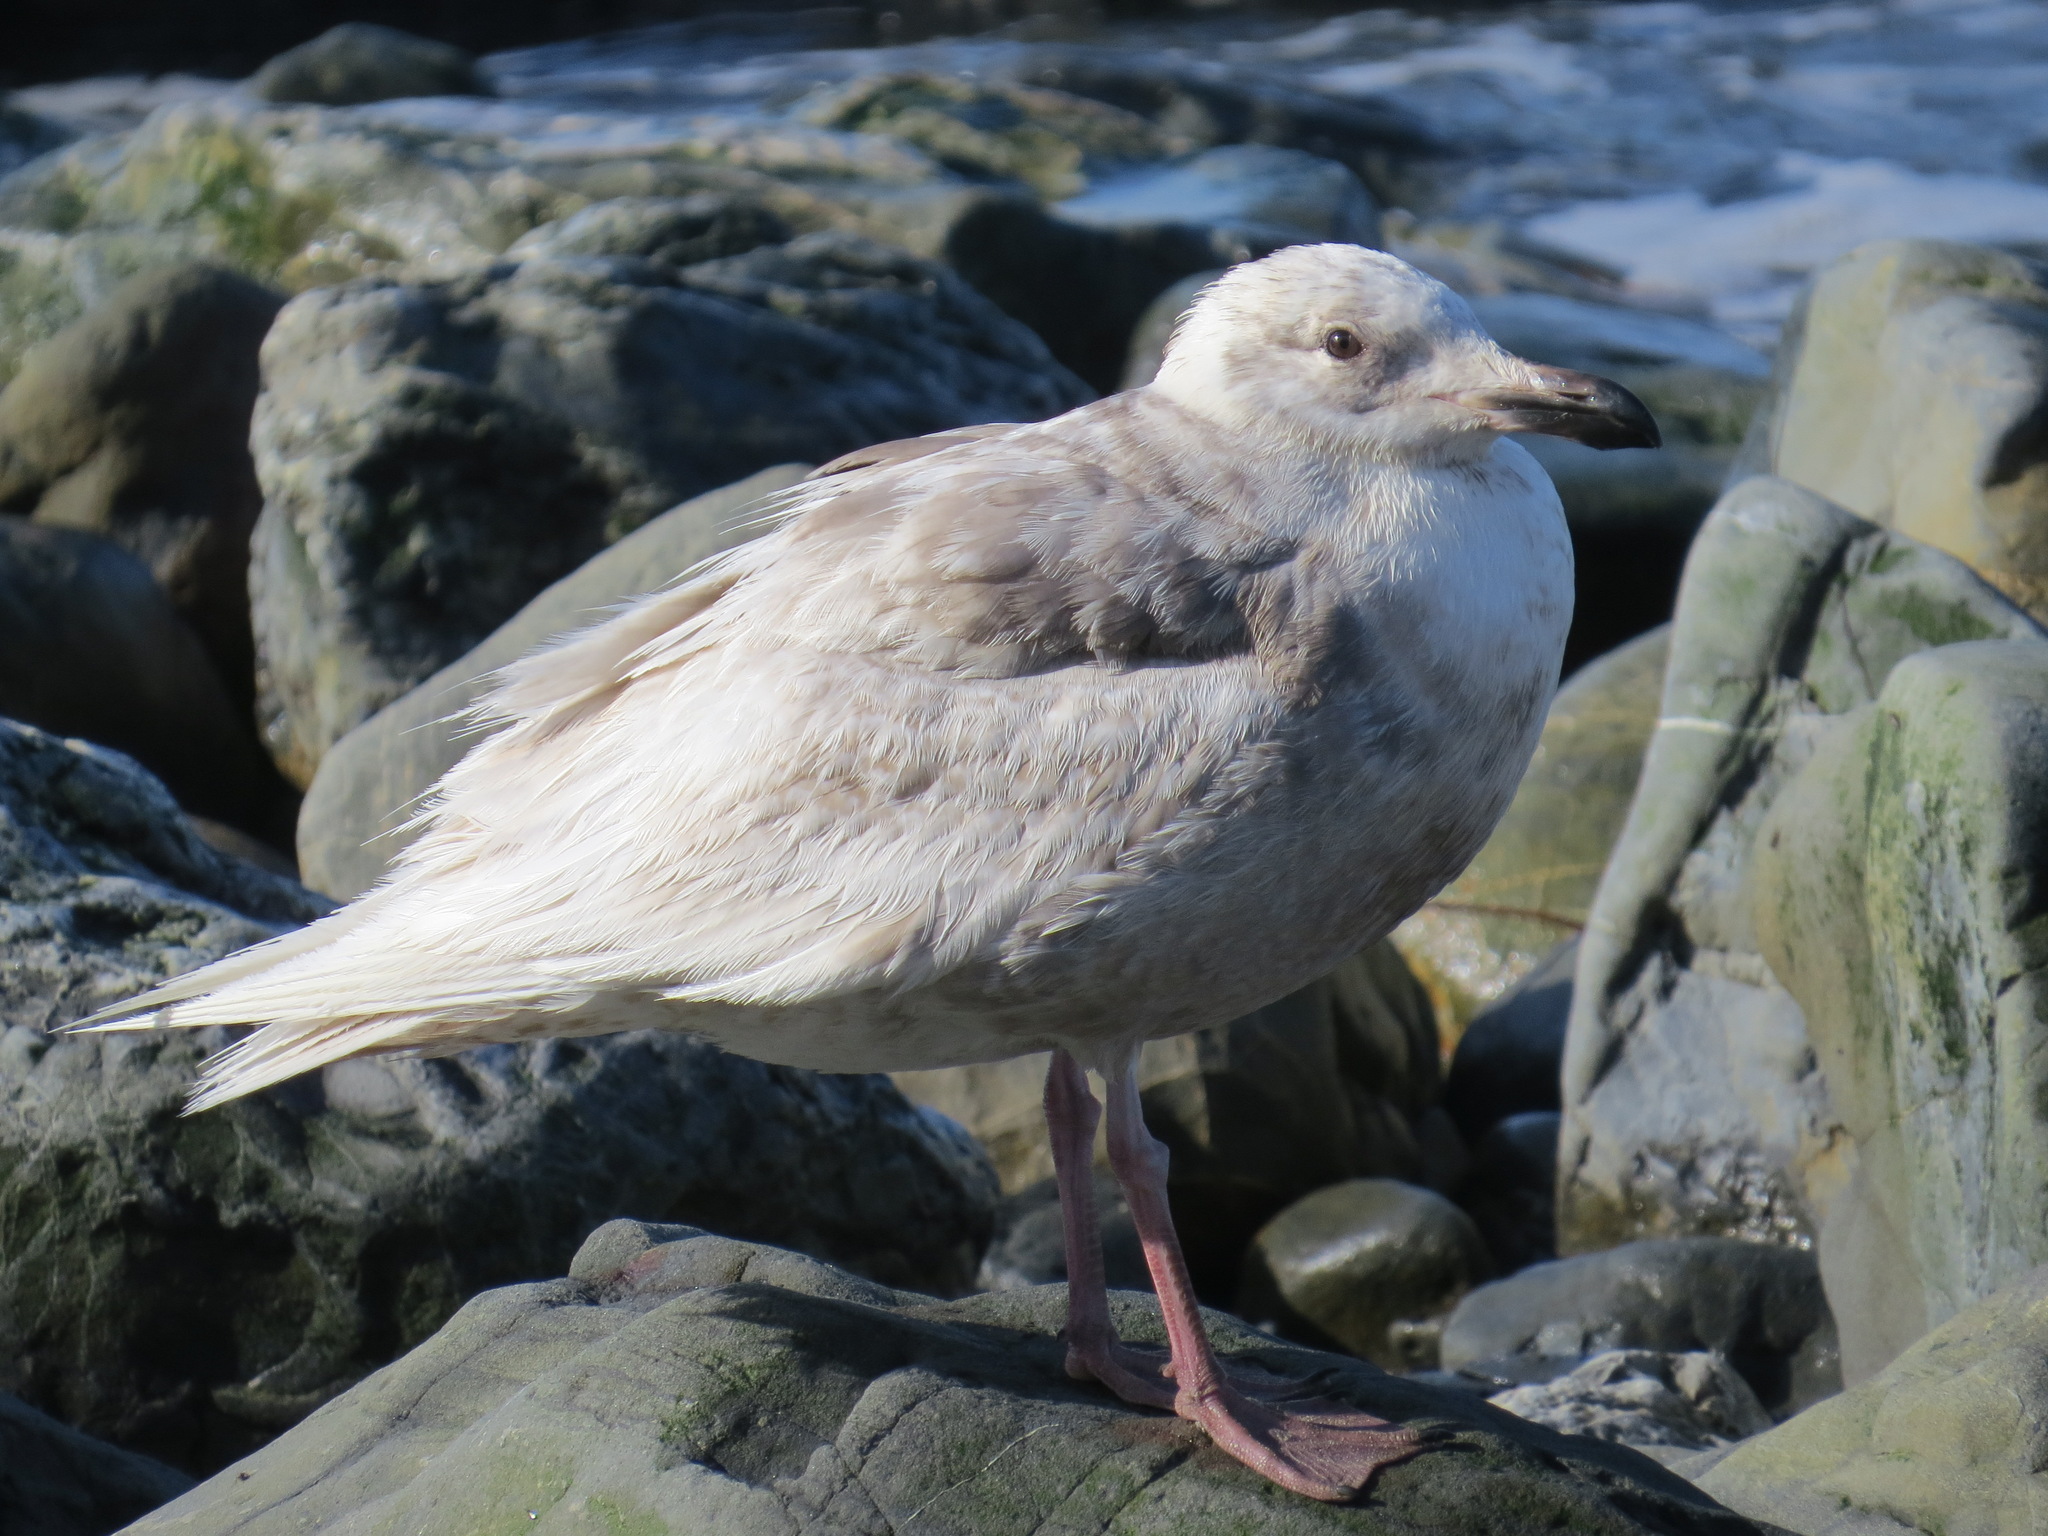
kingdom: Animalia
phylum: Chordata
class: Aves
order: Charadriiformes
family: Laridae
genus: Larus
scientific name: Larus glaucescens
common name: Glaucous-winged gull
